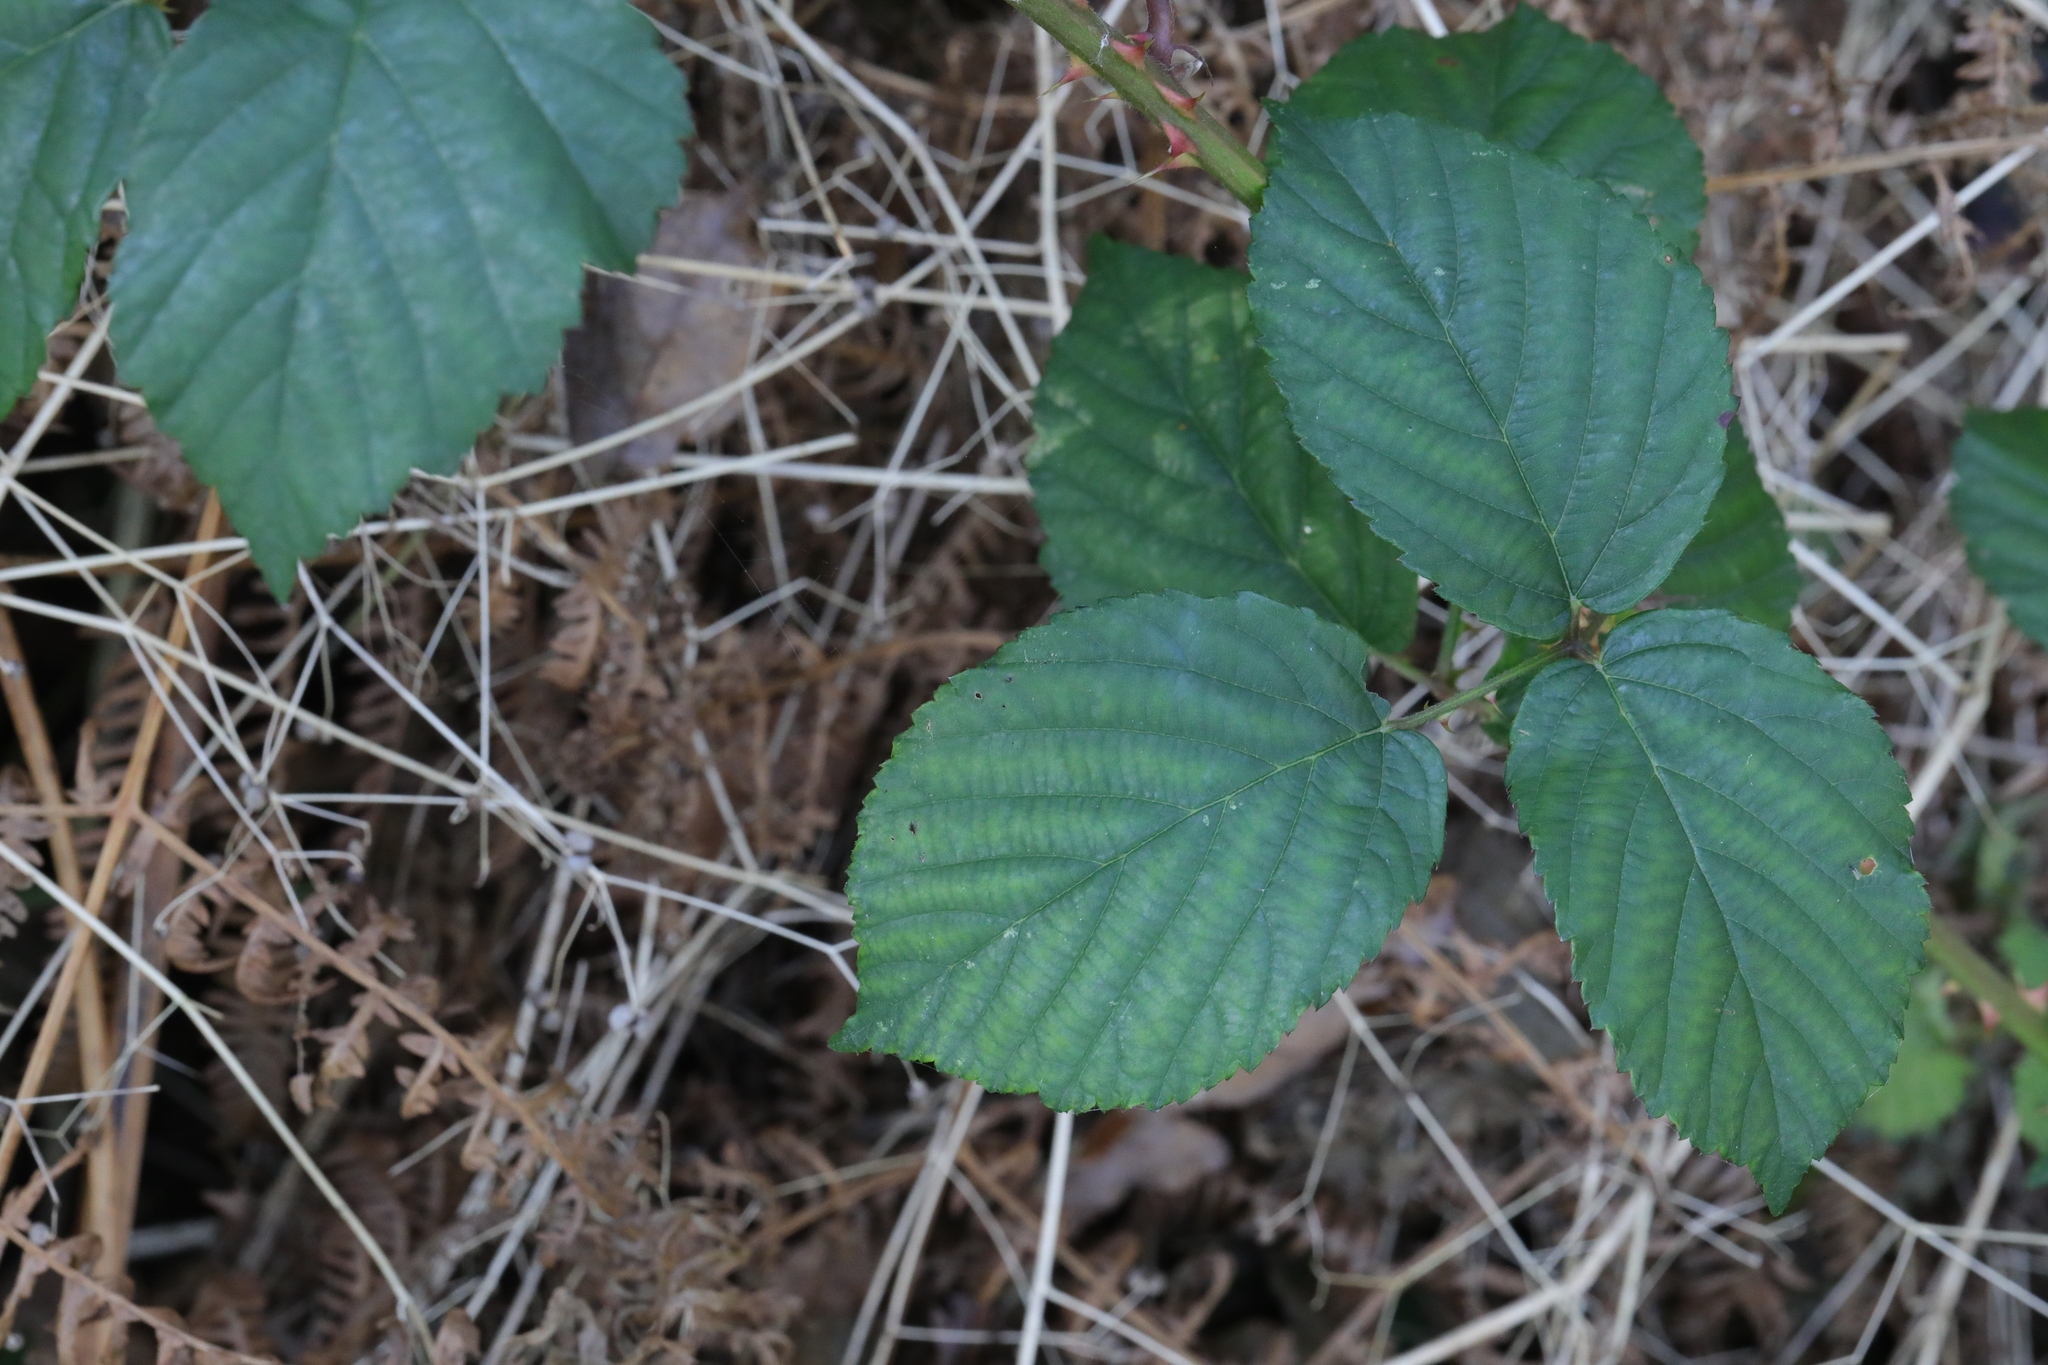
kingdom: Plantae
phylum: Tracheophyta
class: Magnoliopsida
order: Rosales
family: Rosaceae
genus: Rubus
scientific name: Rubus armeniacus
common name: Himalayan blackberry
